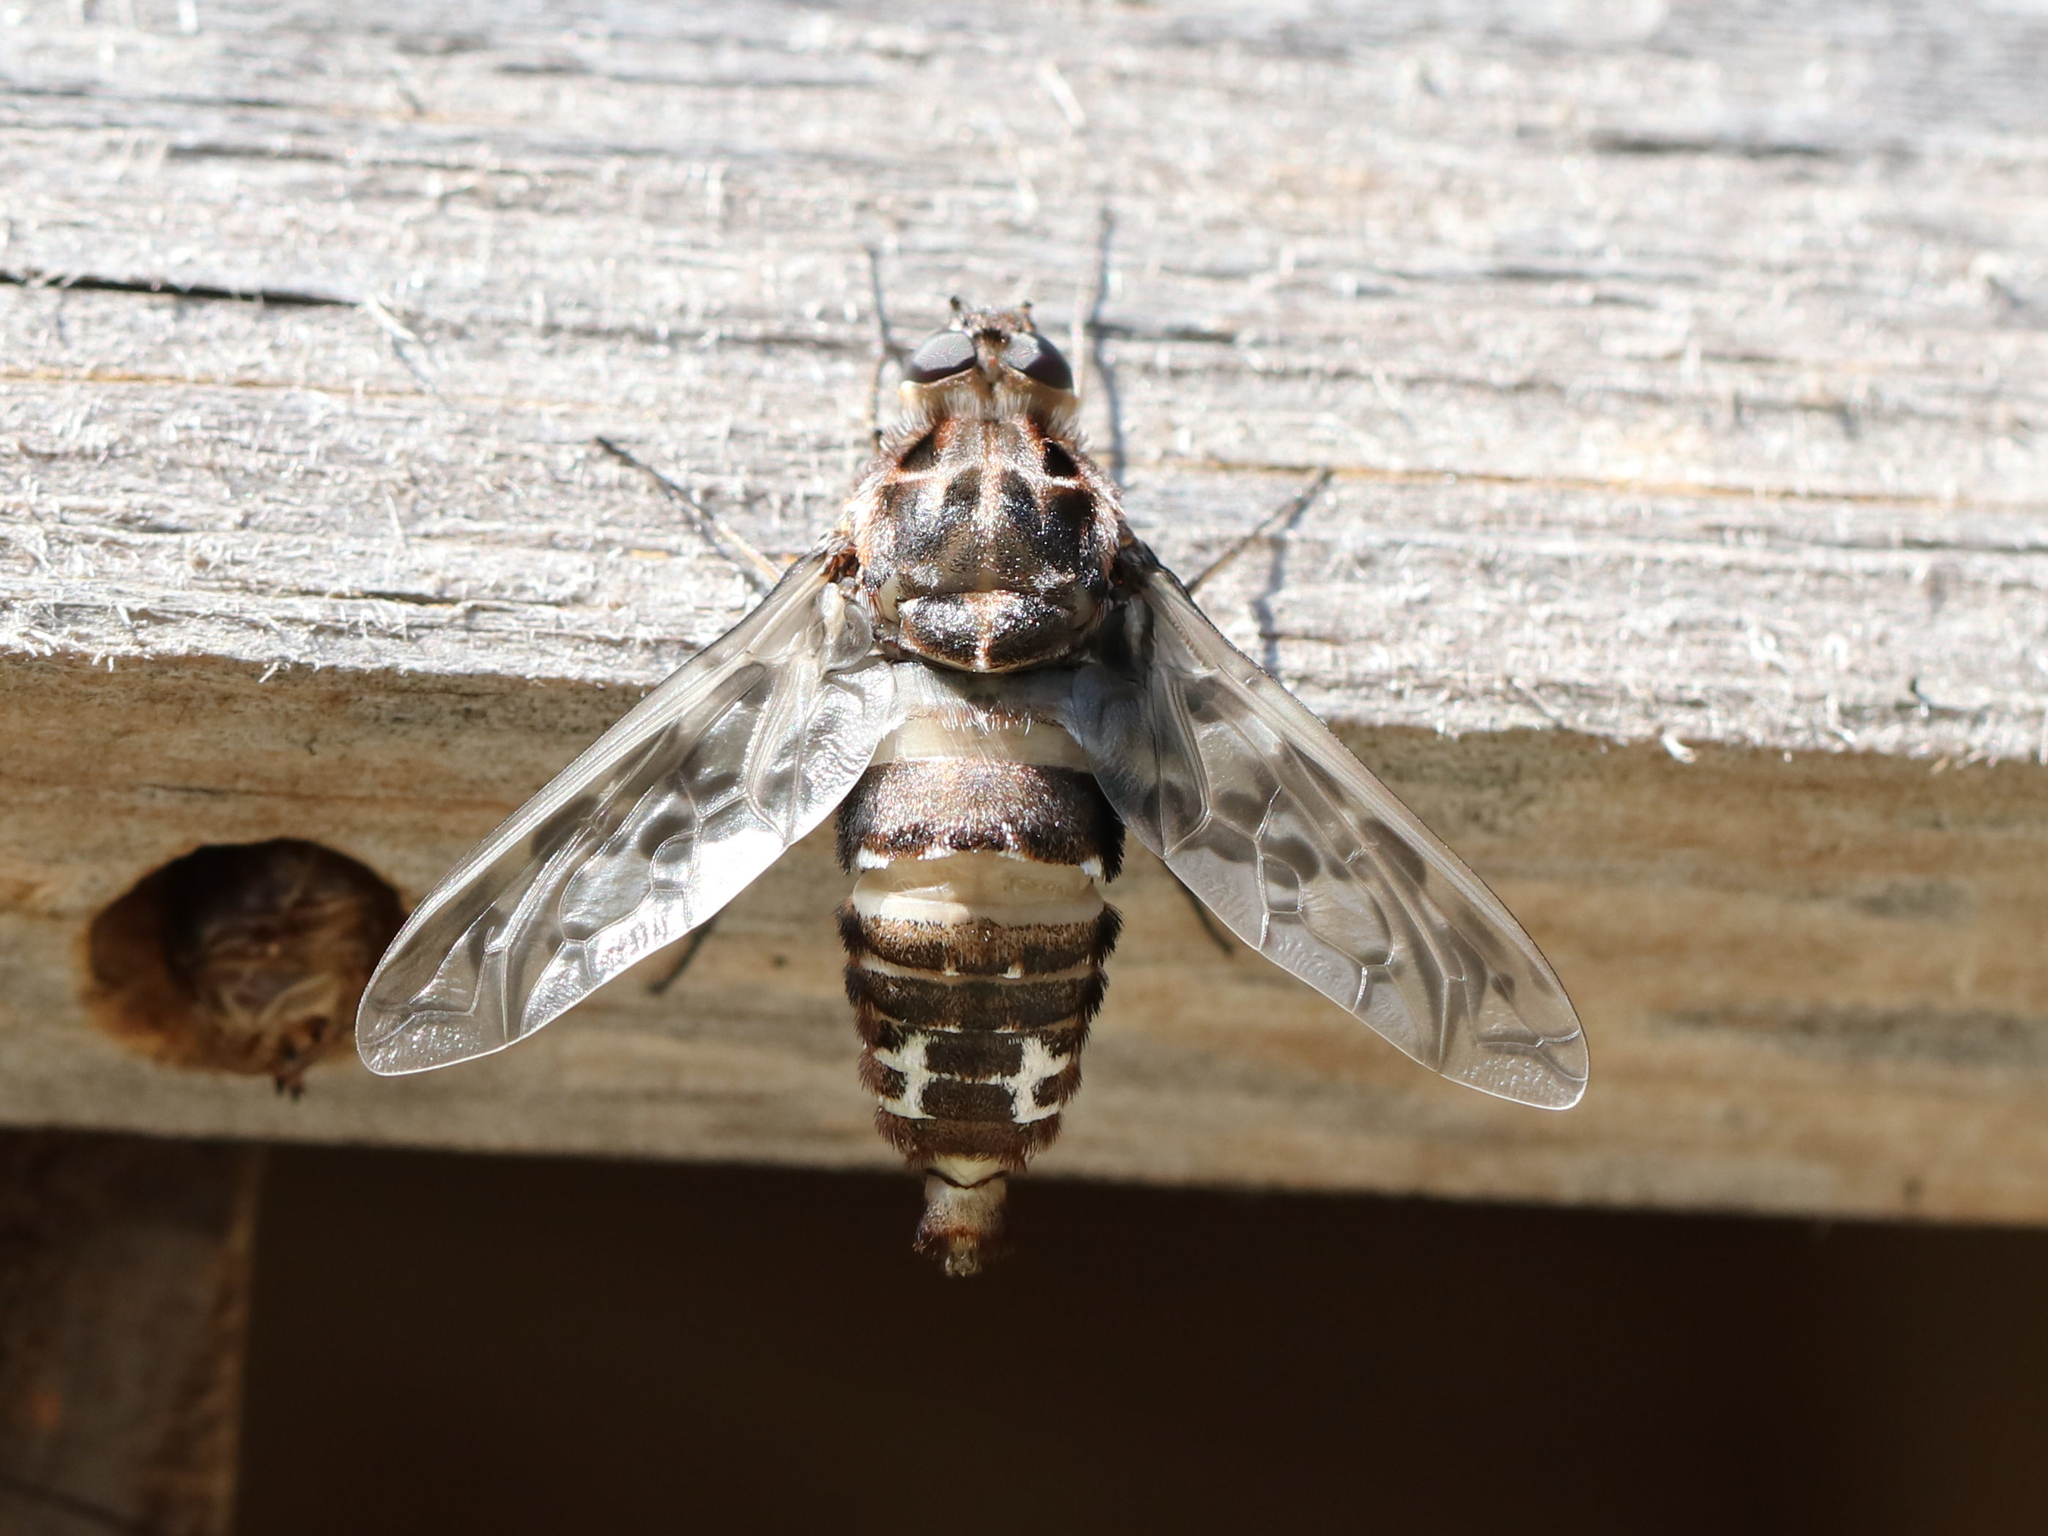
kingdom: Animalia
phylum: Arthropoda
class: Insecta
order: Diptera
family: Bombyliidae
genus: Xenox
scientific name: Xenox tigrinus
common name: Tiger bee fly
